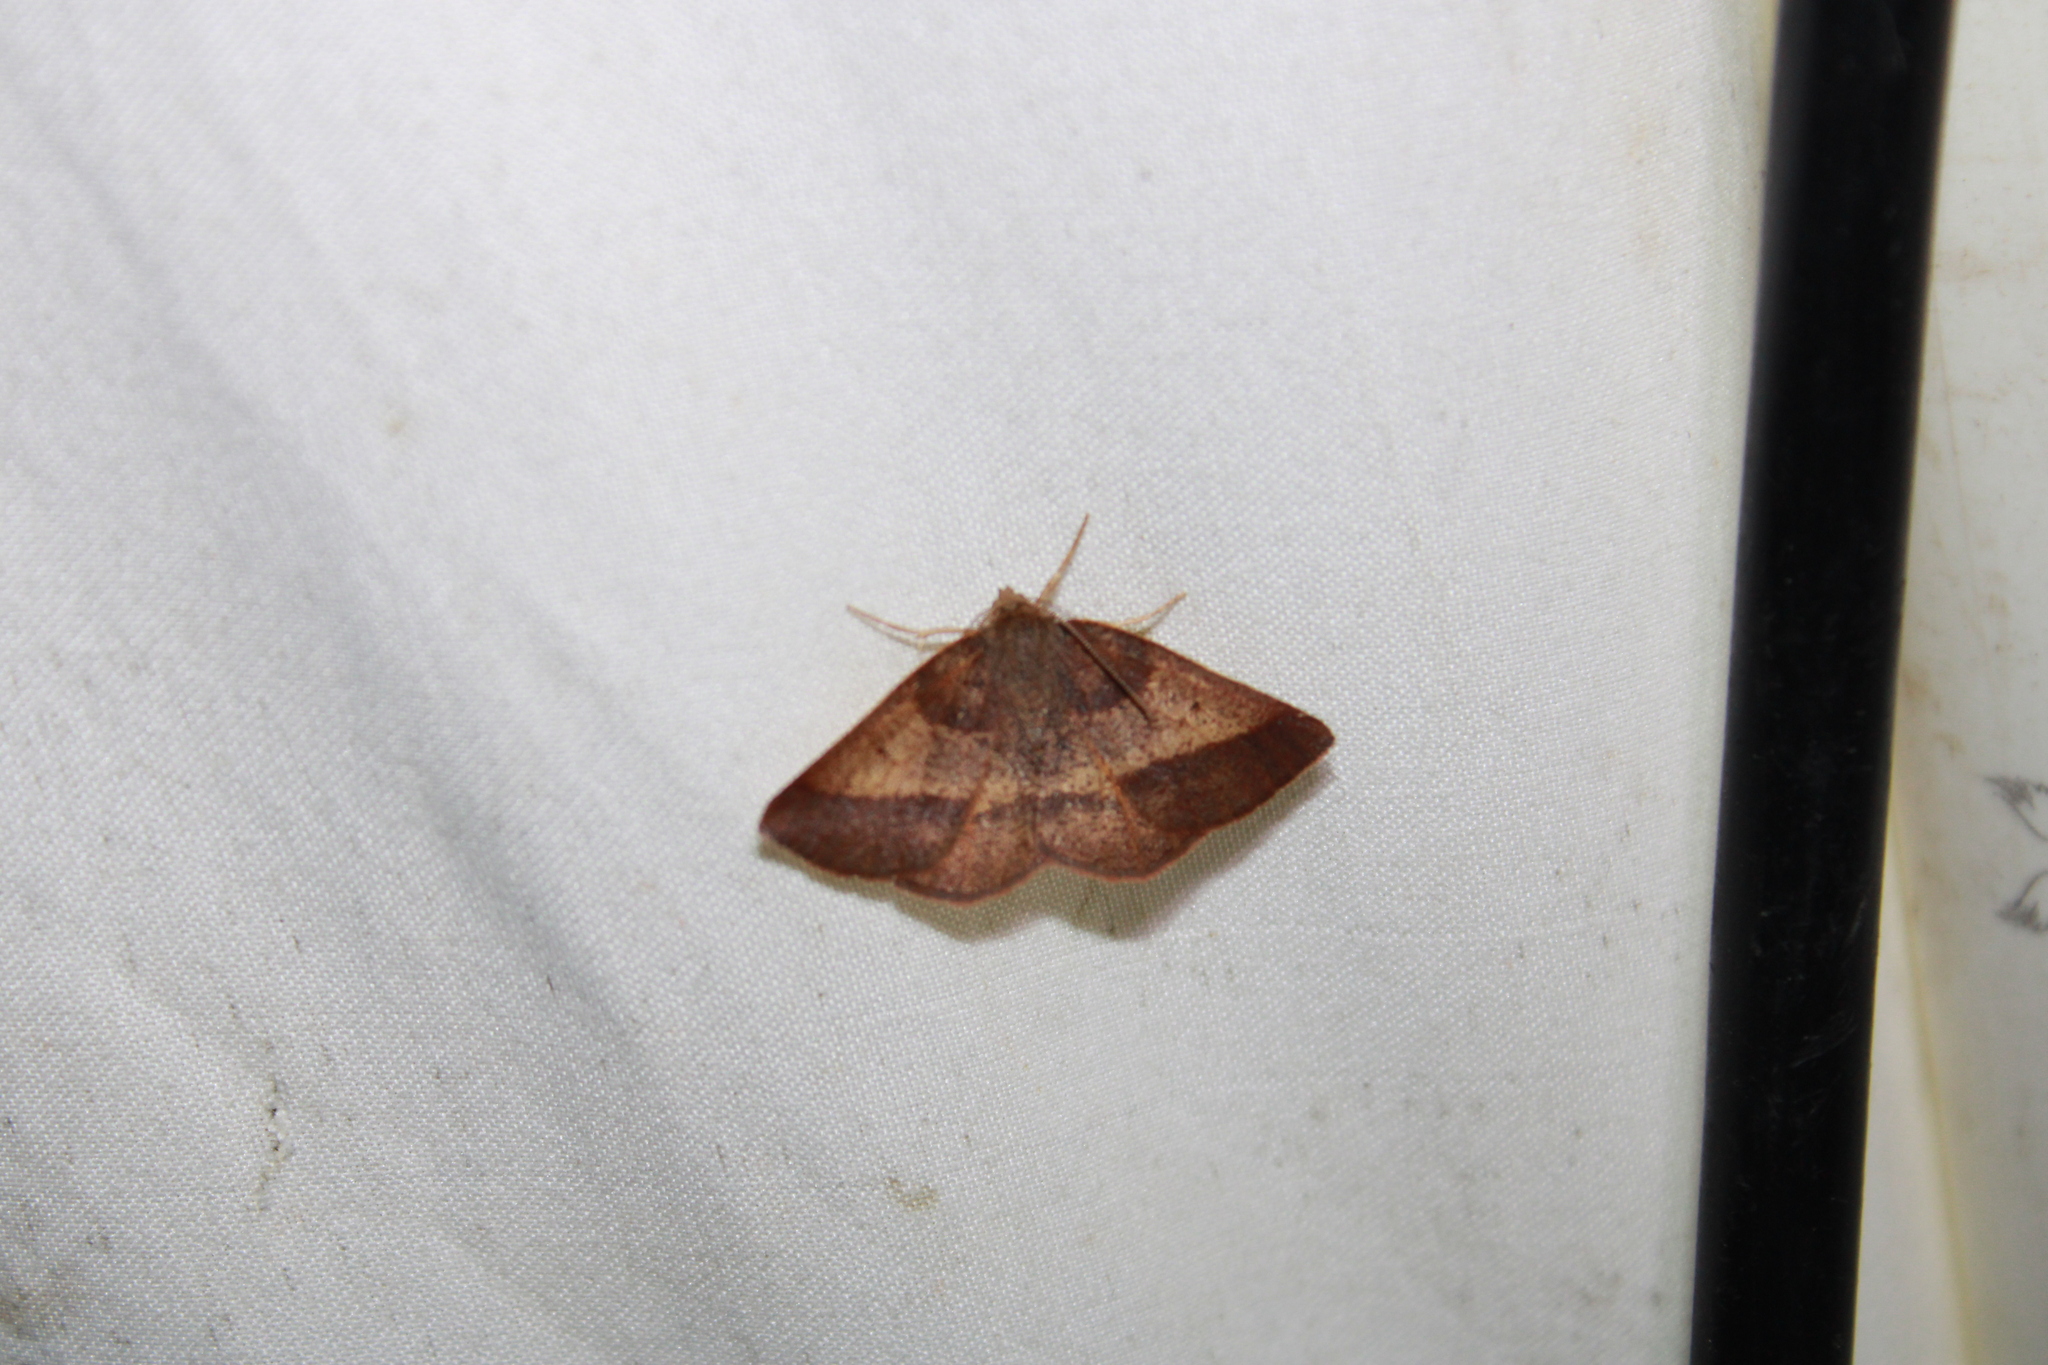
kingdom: Animalia
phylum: Arthropoda
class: Insecta
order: Lepidoptera
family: Geometridae
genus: Metarranthis
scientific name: Metarranthis obfirmaria
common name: Yellow-washed metarranthis
